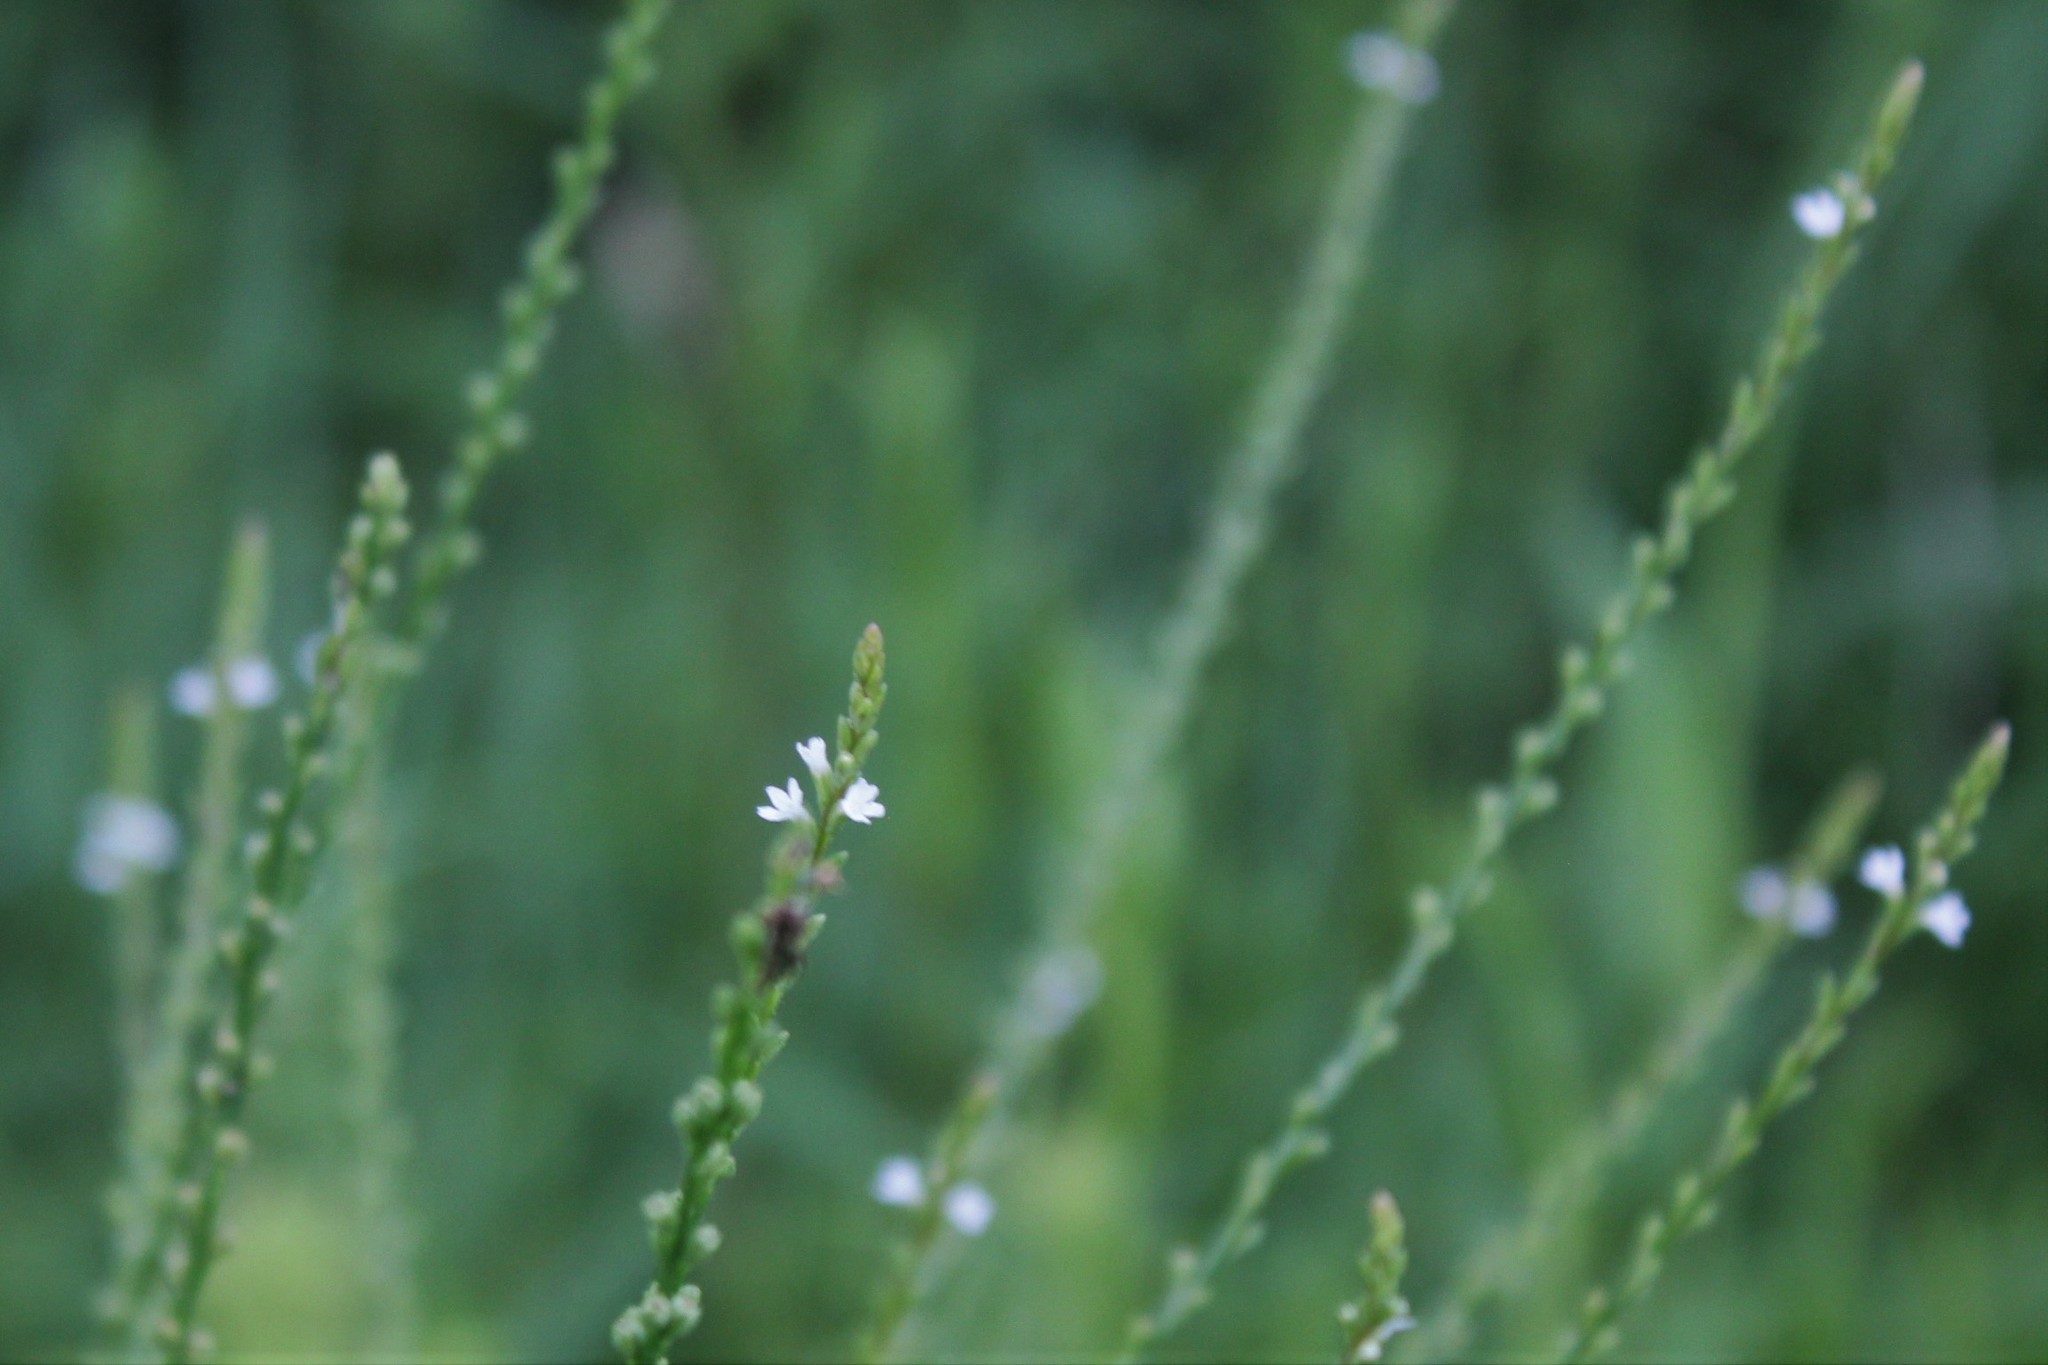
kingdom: Plantae
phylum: Tracheophyta
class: Magnoliopsida
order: Lamiales
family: Verbenaceae
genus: Verbena
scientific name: Verbena urticifolia
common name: Nettle-leaved vervain
